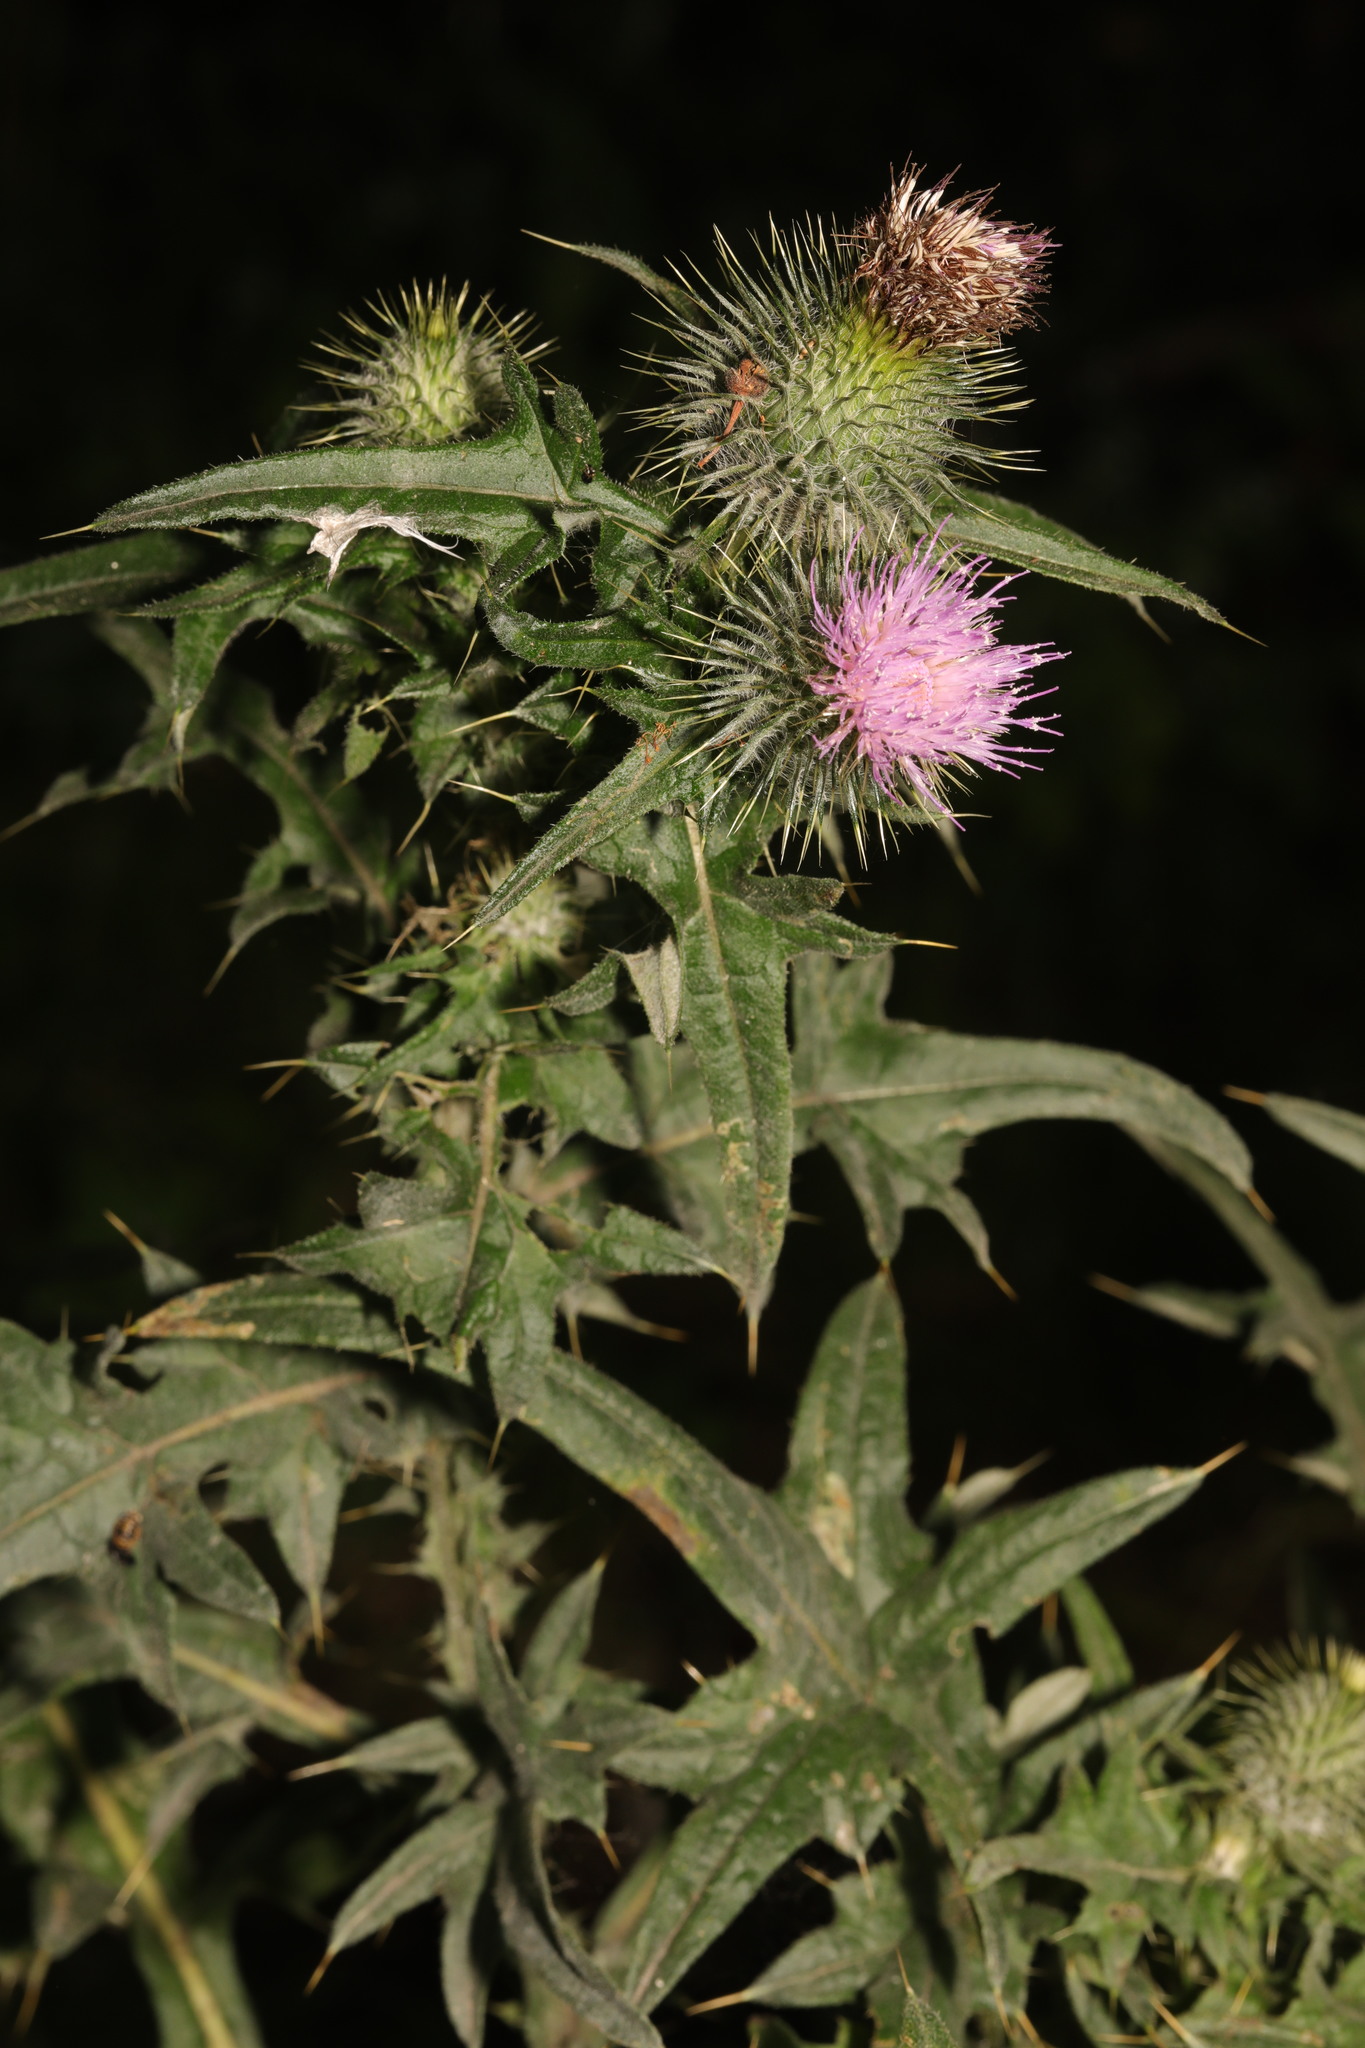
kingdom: Plantae
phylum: Tracheophyta
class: Magnoliopsida
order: Asterales
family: Asteraceae
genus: Cirsium
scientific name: Cirsium vulgare
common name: Bull thistle
